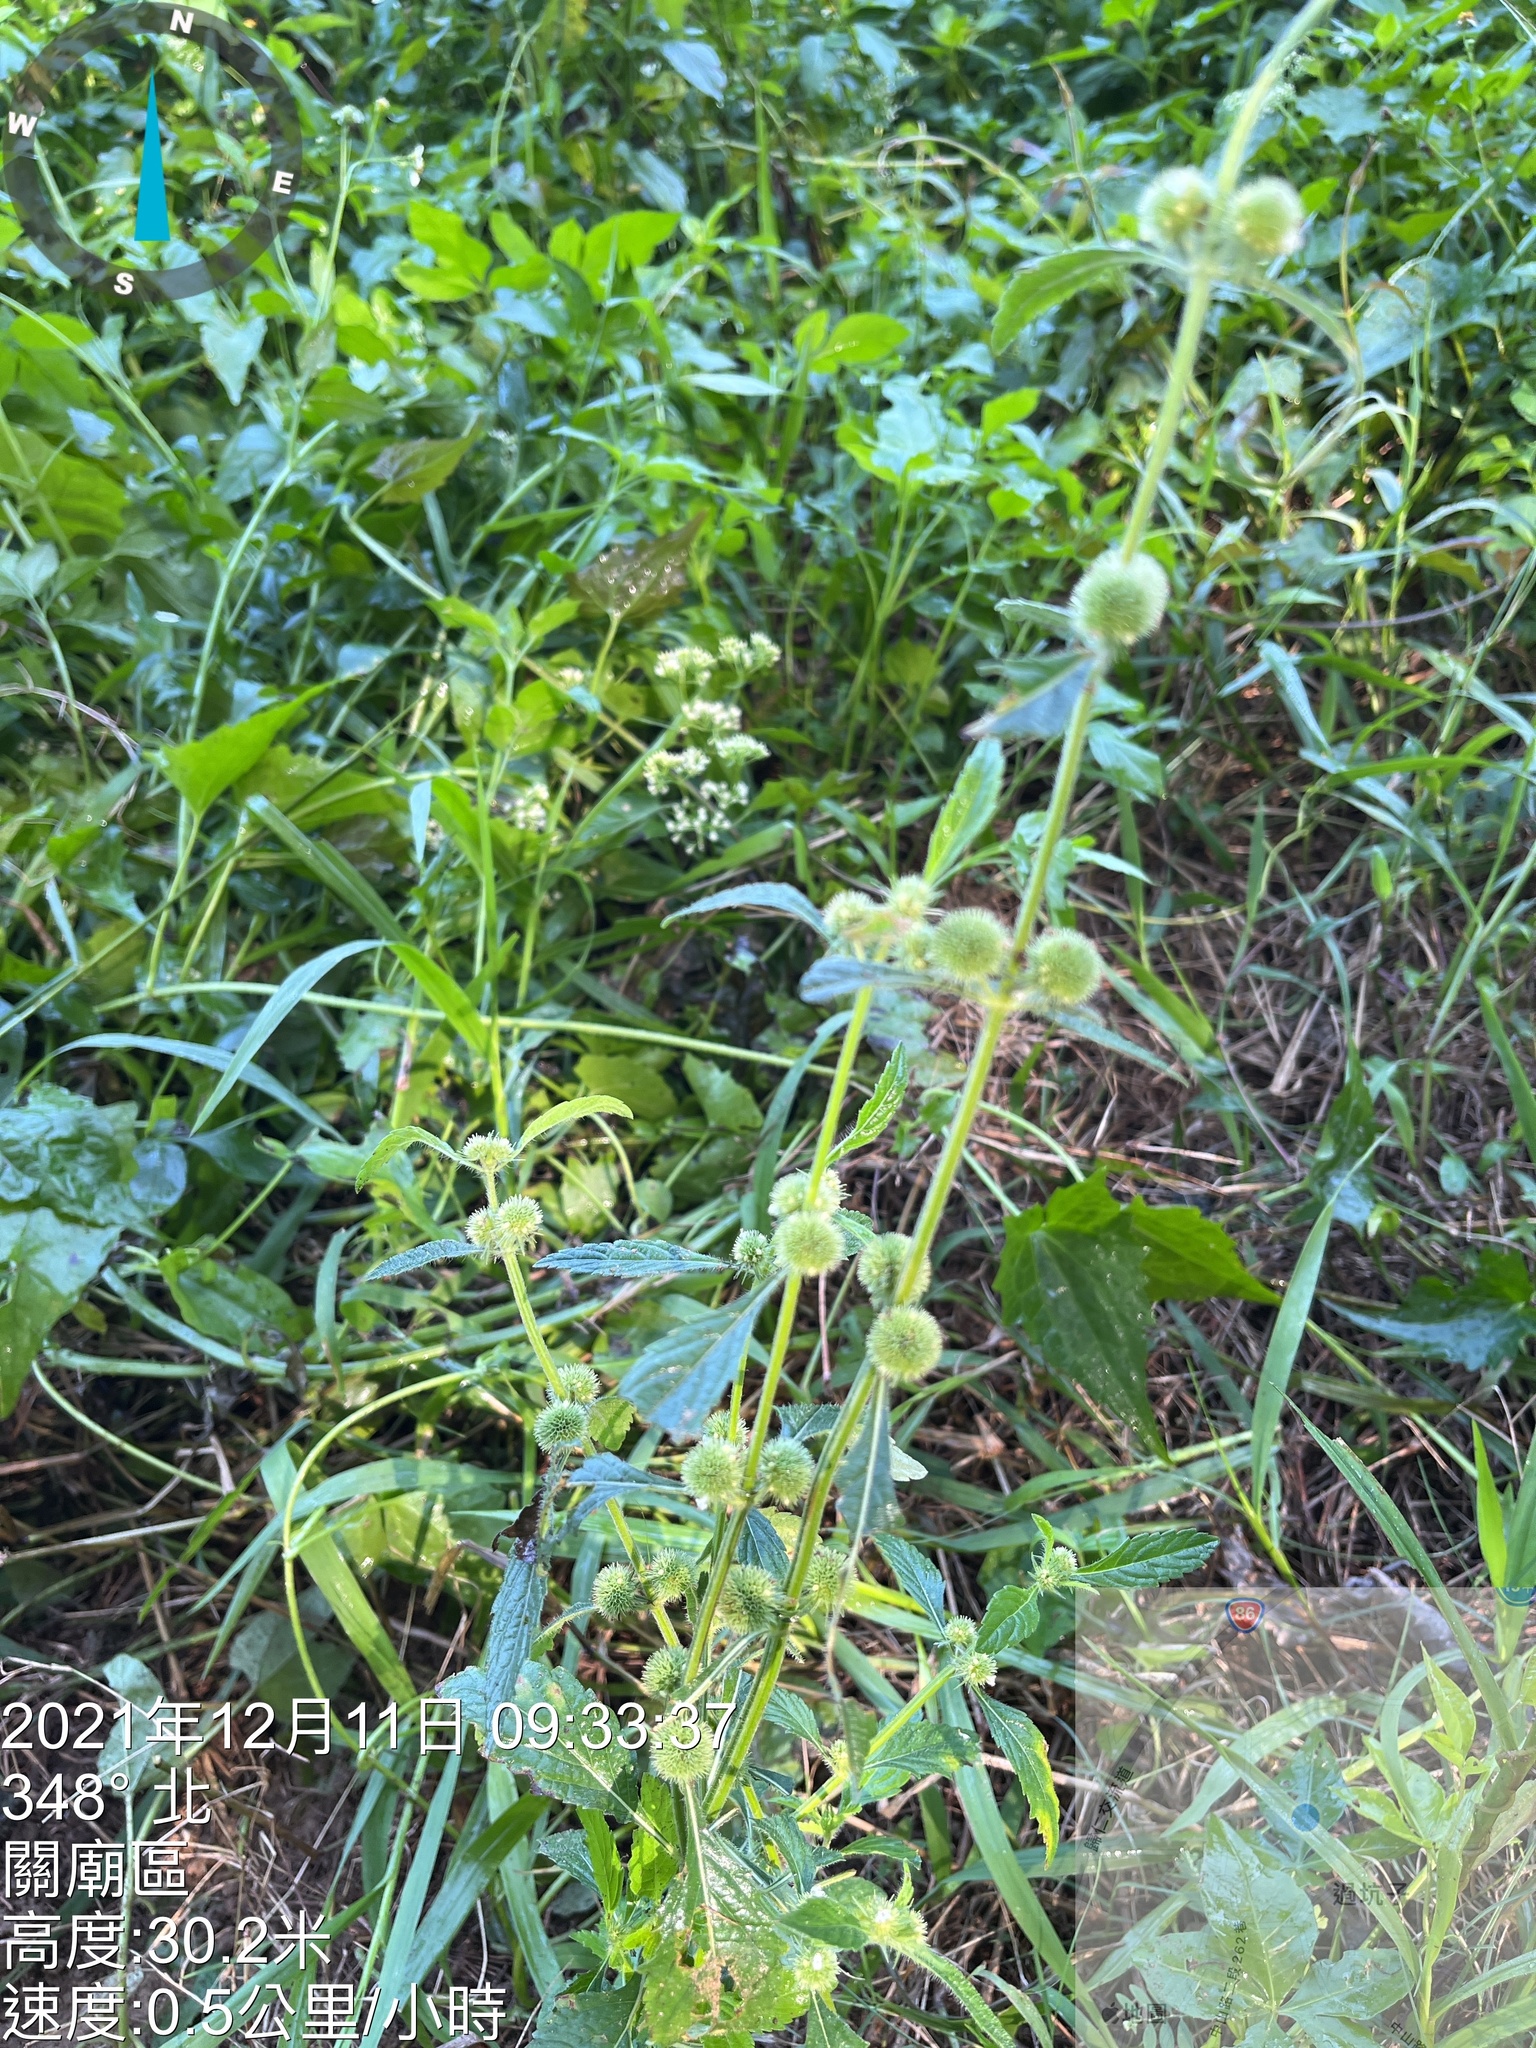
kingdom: Plantae
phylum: Tracheophyta
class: Magnoliopsida
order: Lamiales
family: Lamiaceae
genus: Hyptis
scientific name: Hyptis brevipes
